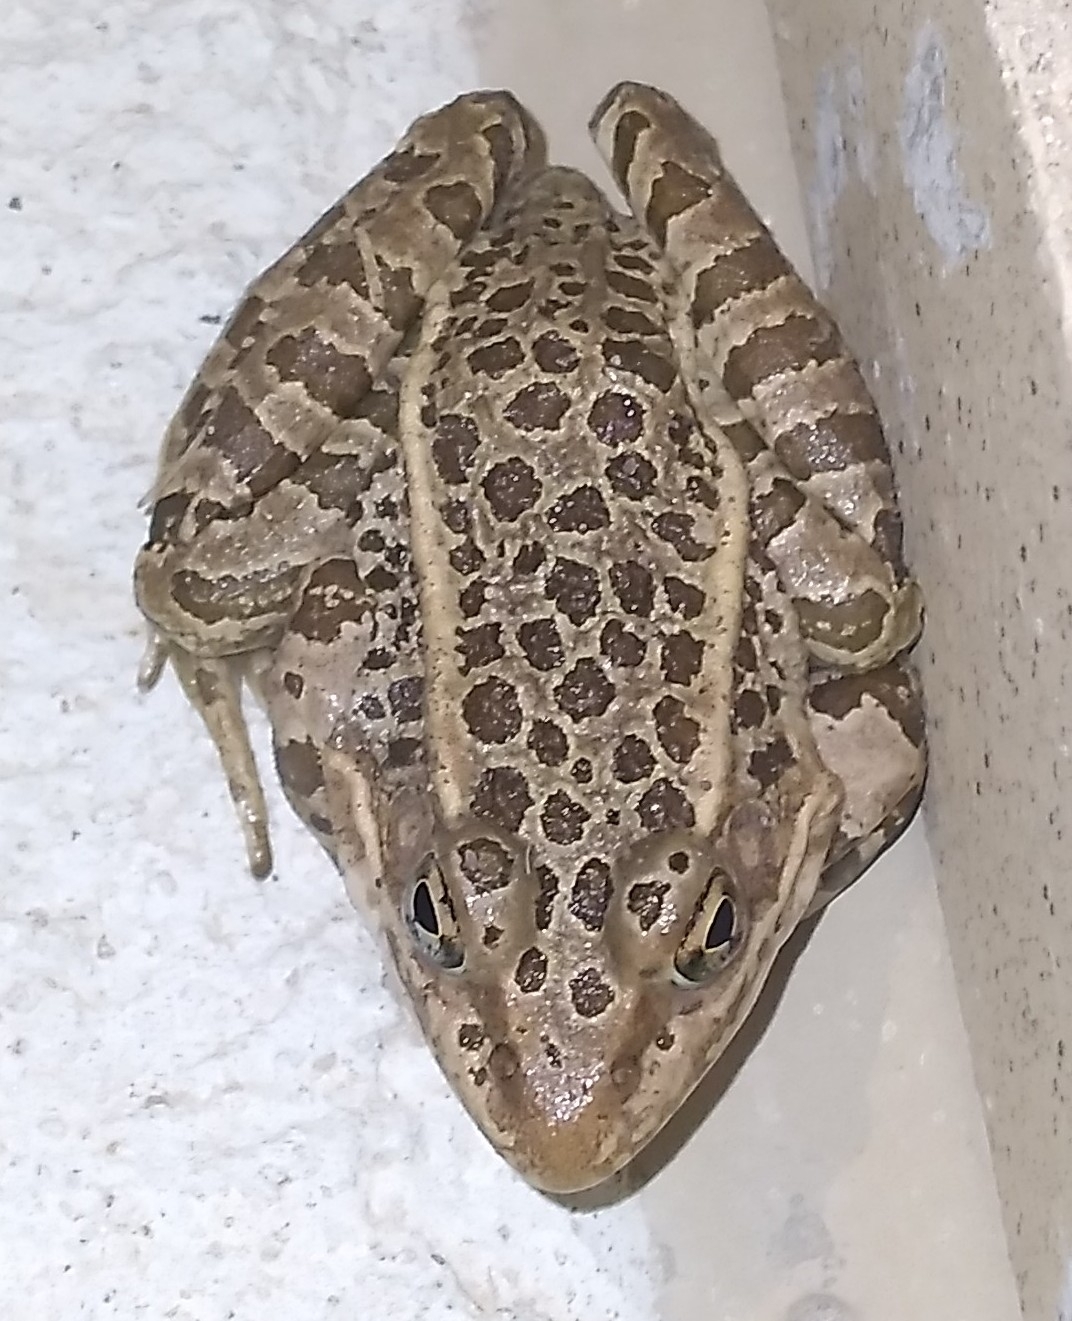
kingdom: Animalia
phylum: Chordata
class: Amphibia
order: Anura
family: Ranidae
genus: Lithobates
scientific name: Lithobates pipiens
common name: Northern leopard frog
